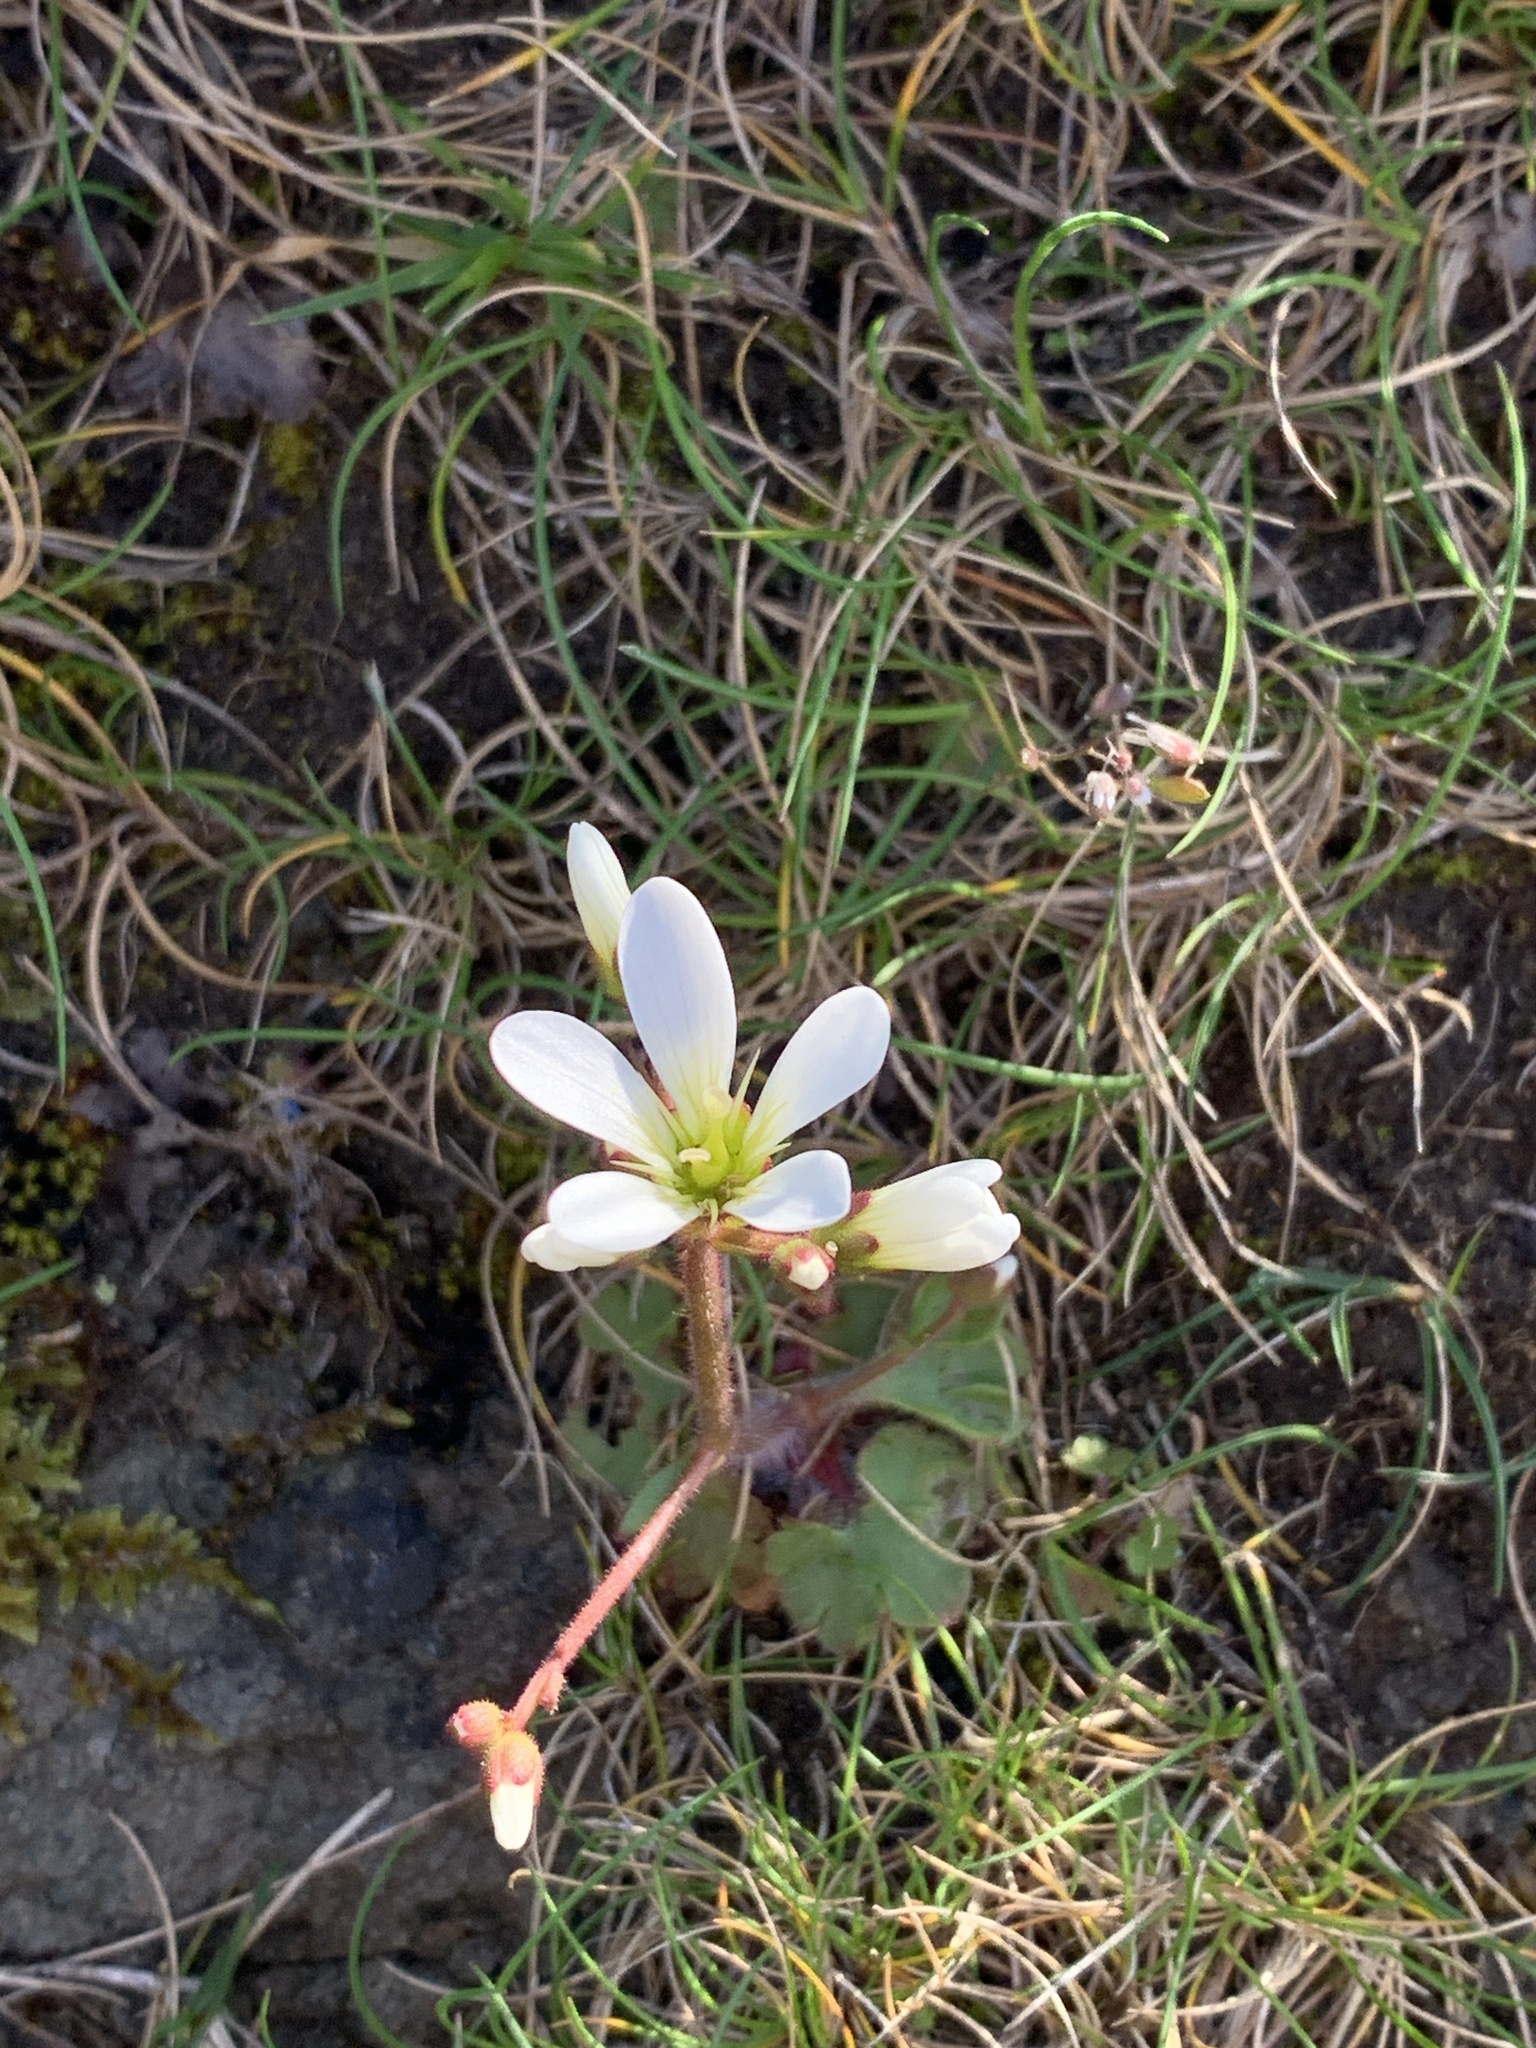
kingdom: Plantae
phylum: Tracheophyta
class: Magnoliopsida
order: Saxifragales
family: Saxifragaceae
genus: Saxifraga
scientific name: Saxifraga granulata
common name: Meadow saxifrage
